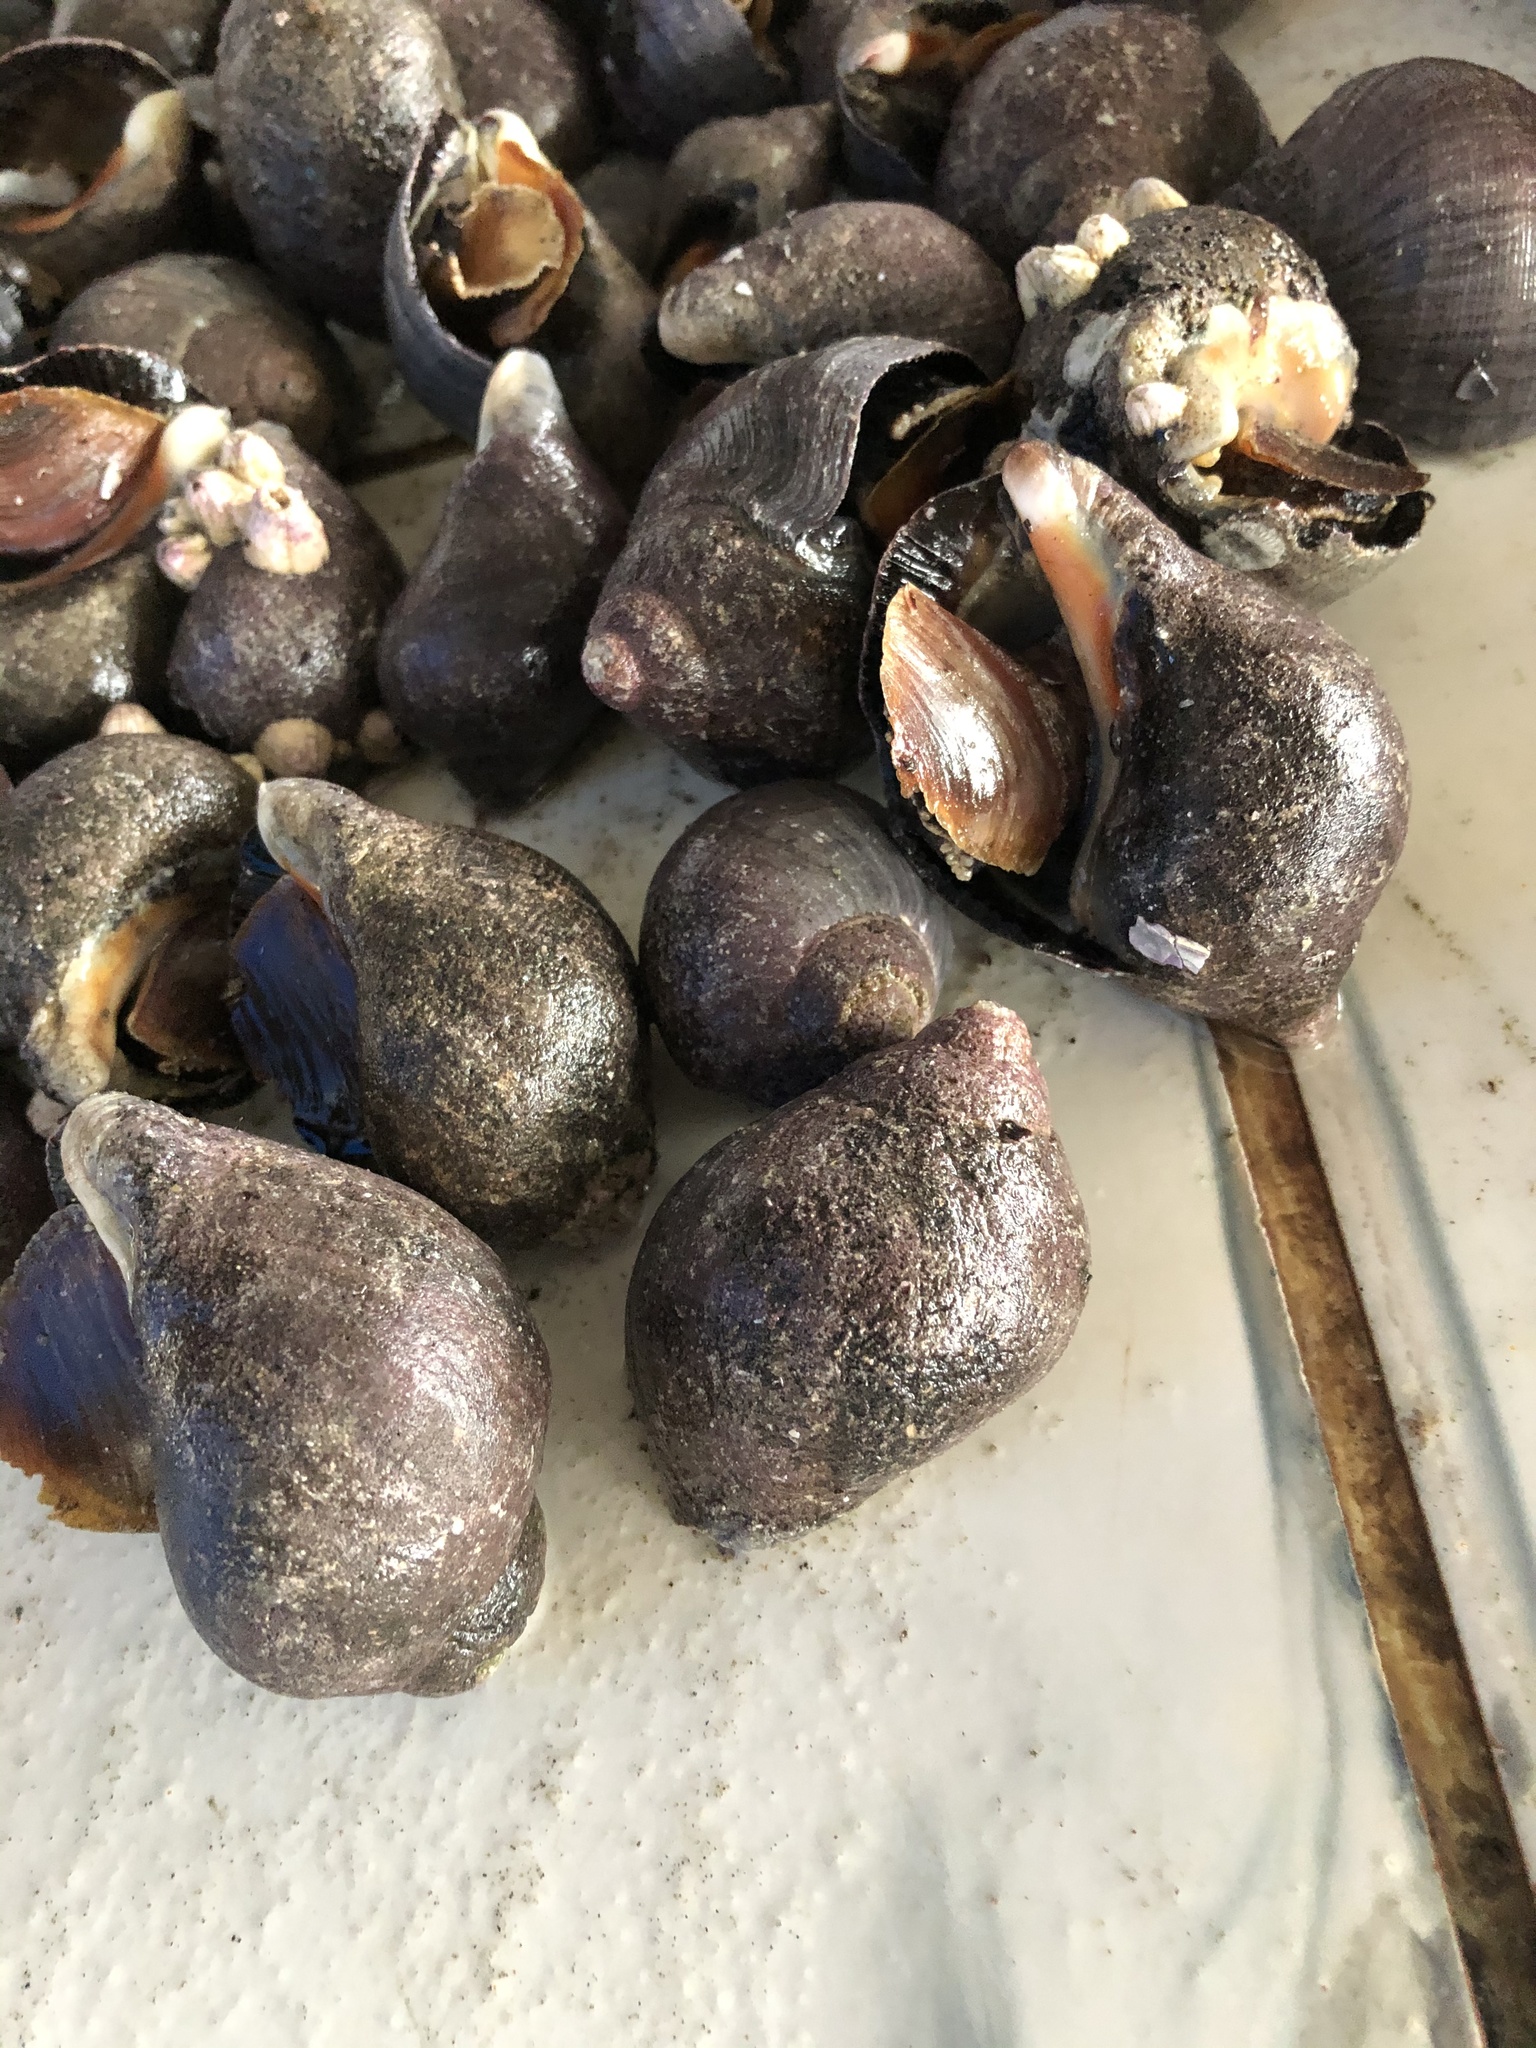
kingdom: Animalia
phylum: Mollusca
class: Gastropoda
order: Neogastropoda
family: Muricidae
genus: Thaisella
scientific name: Thaisella chocolata
